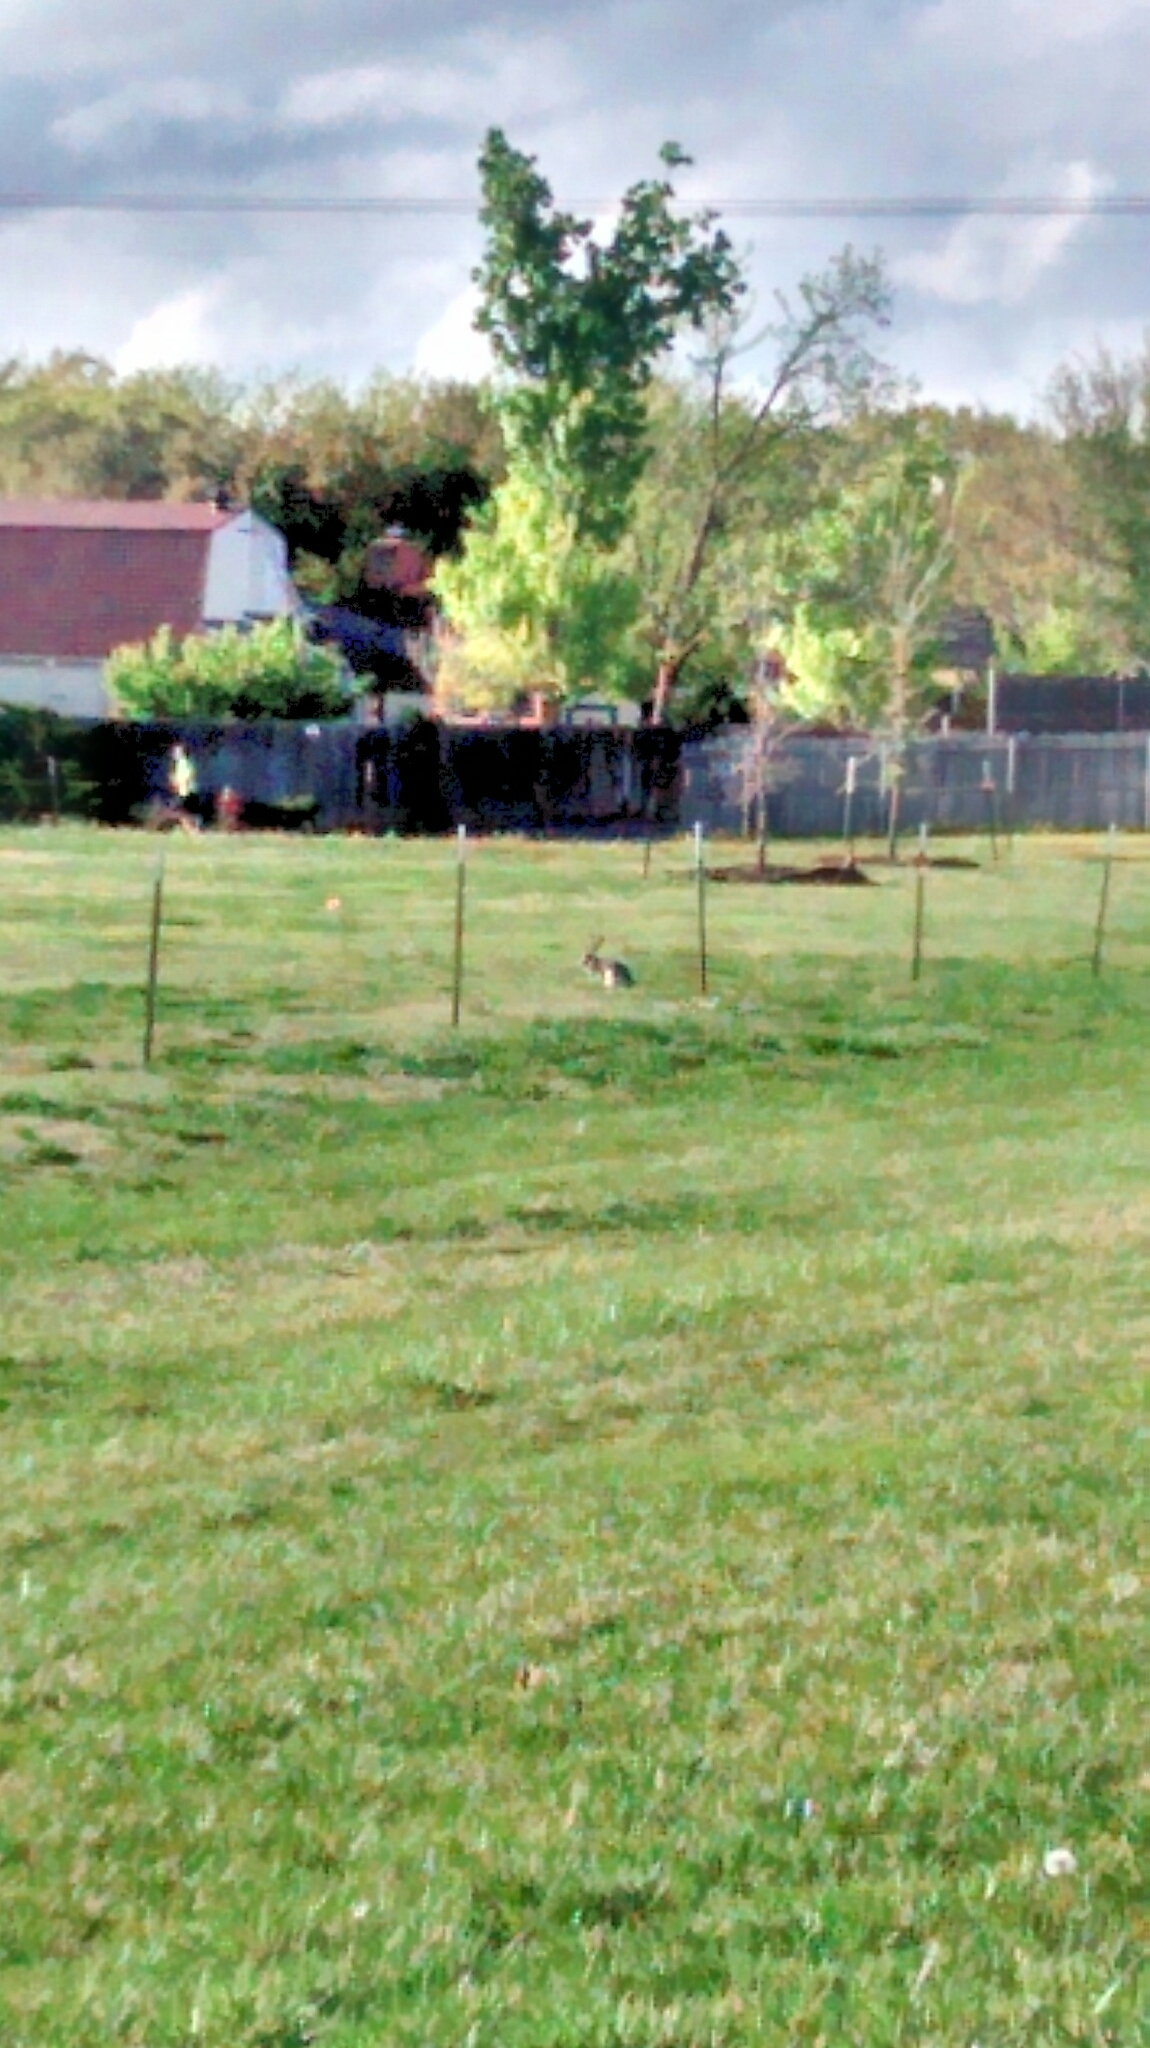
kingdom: Animalia
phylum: Chordata
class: Mammalia
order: Lagomorpha
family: Leporidae
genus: Lepus
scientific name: Lepus californicus
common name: Black-tailed jackrabbit
